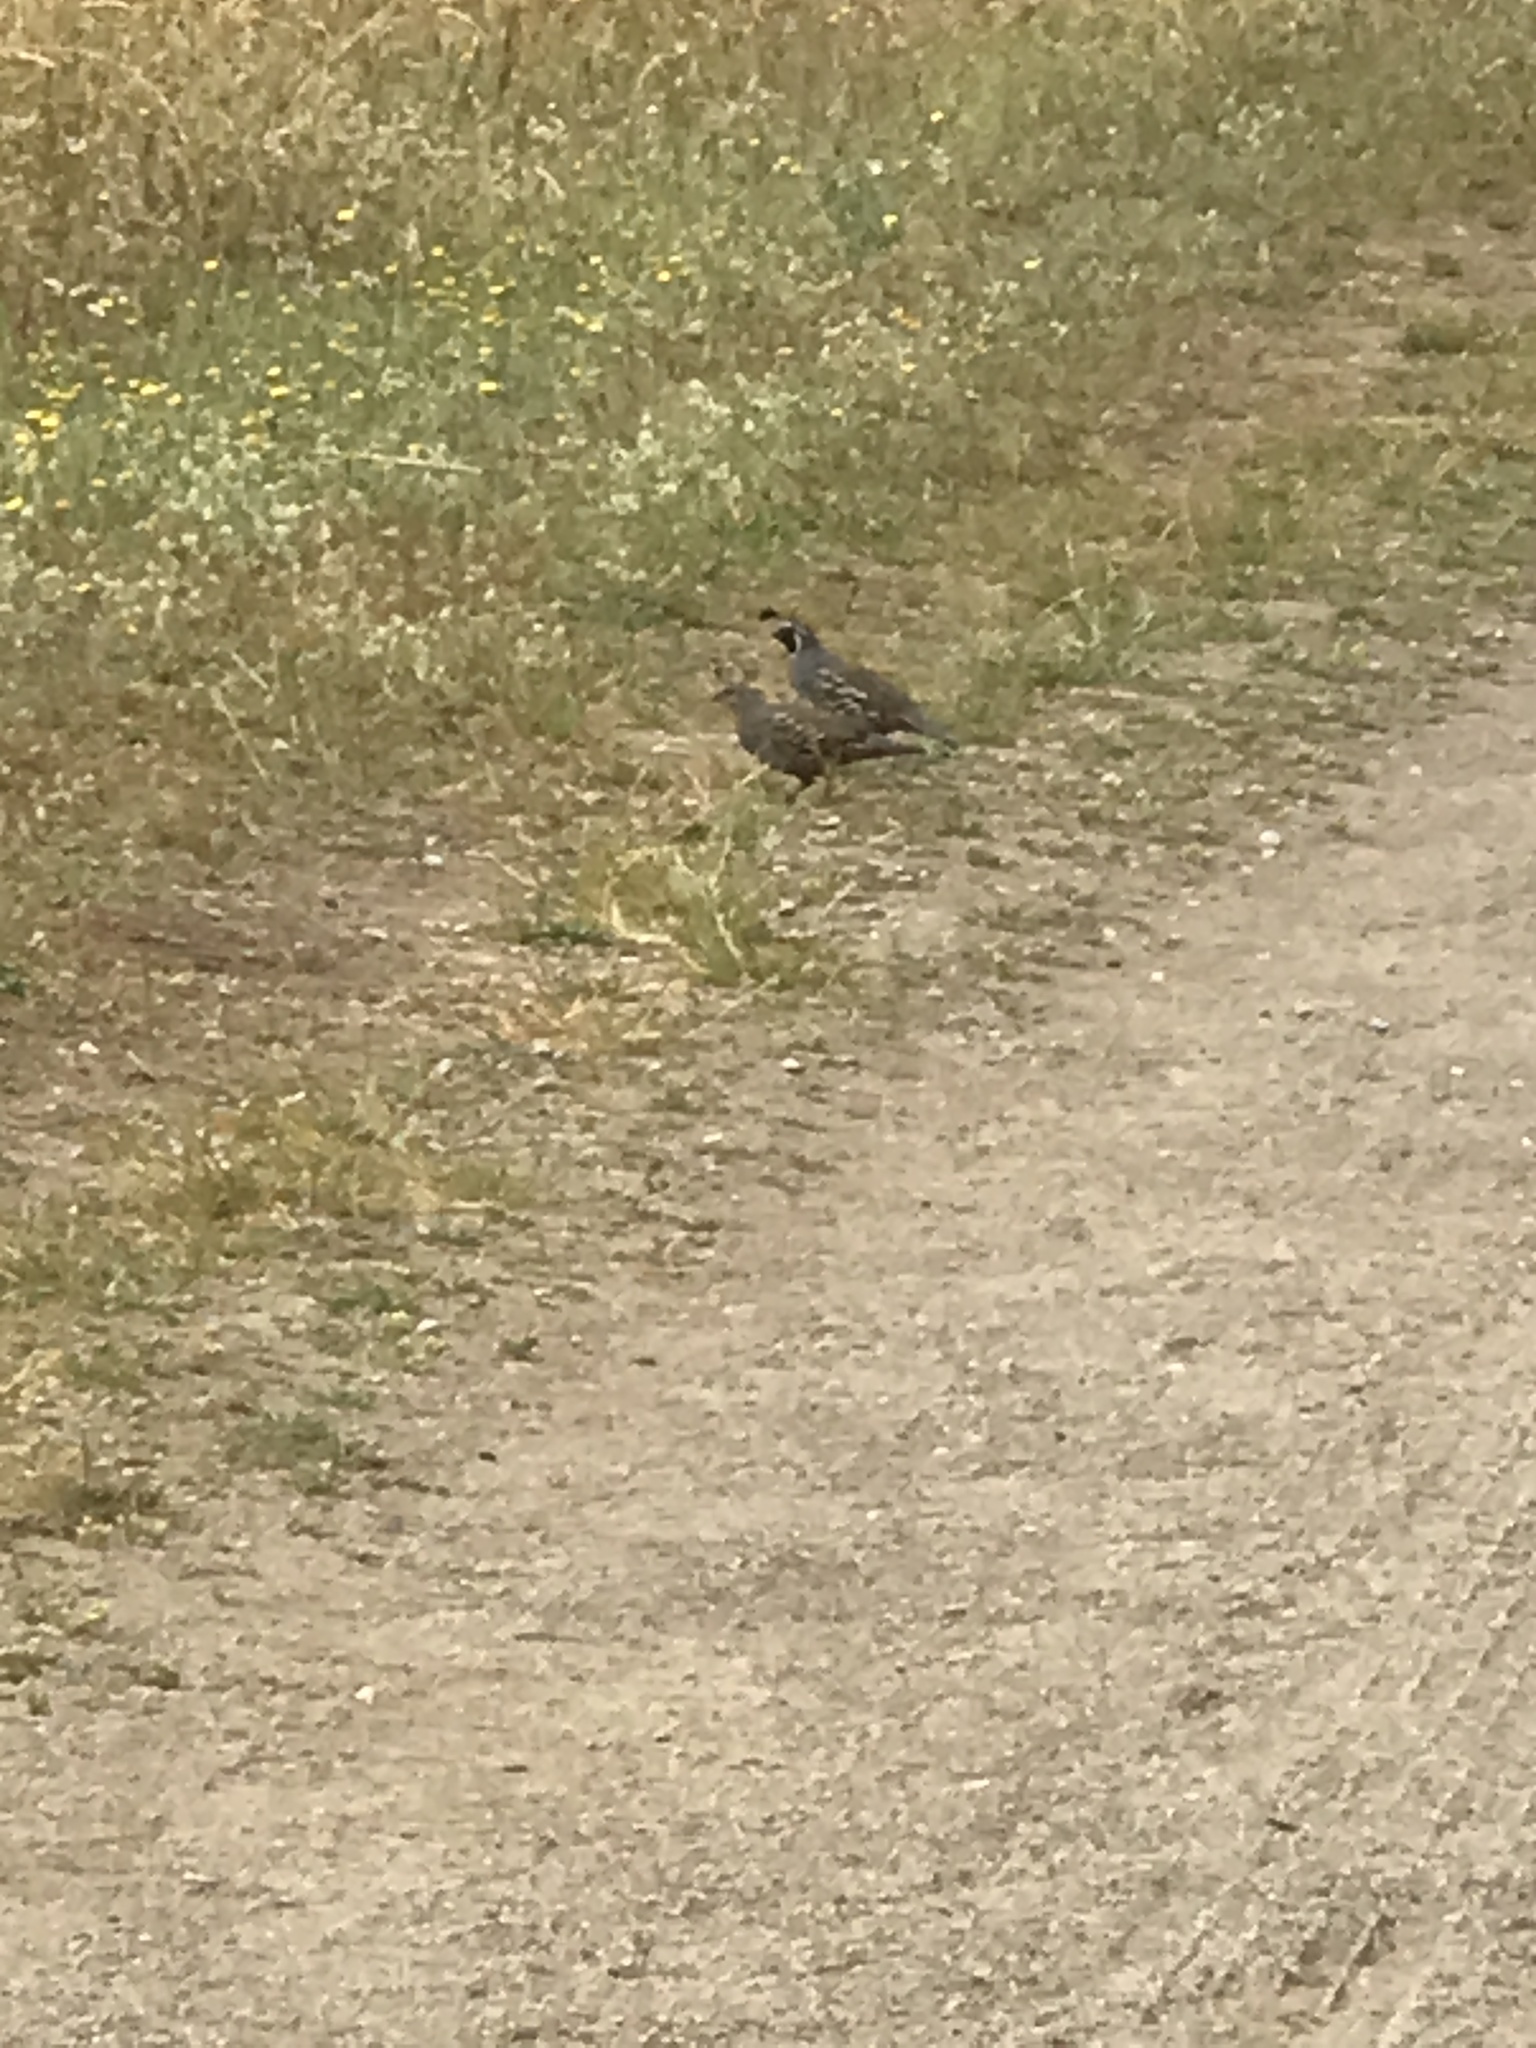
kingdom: Animalia
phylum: Chordata
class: Aves
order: Galliformes
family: Odontophoridae
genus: Callipepla
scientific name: Callipepla californica
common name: California quail
